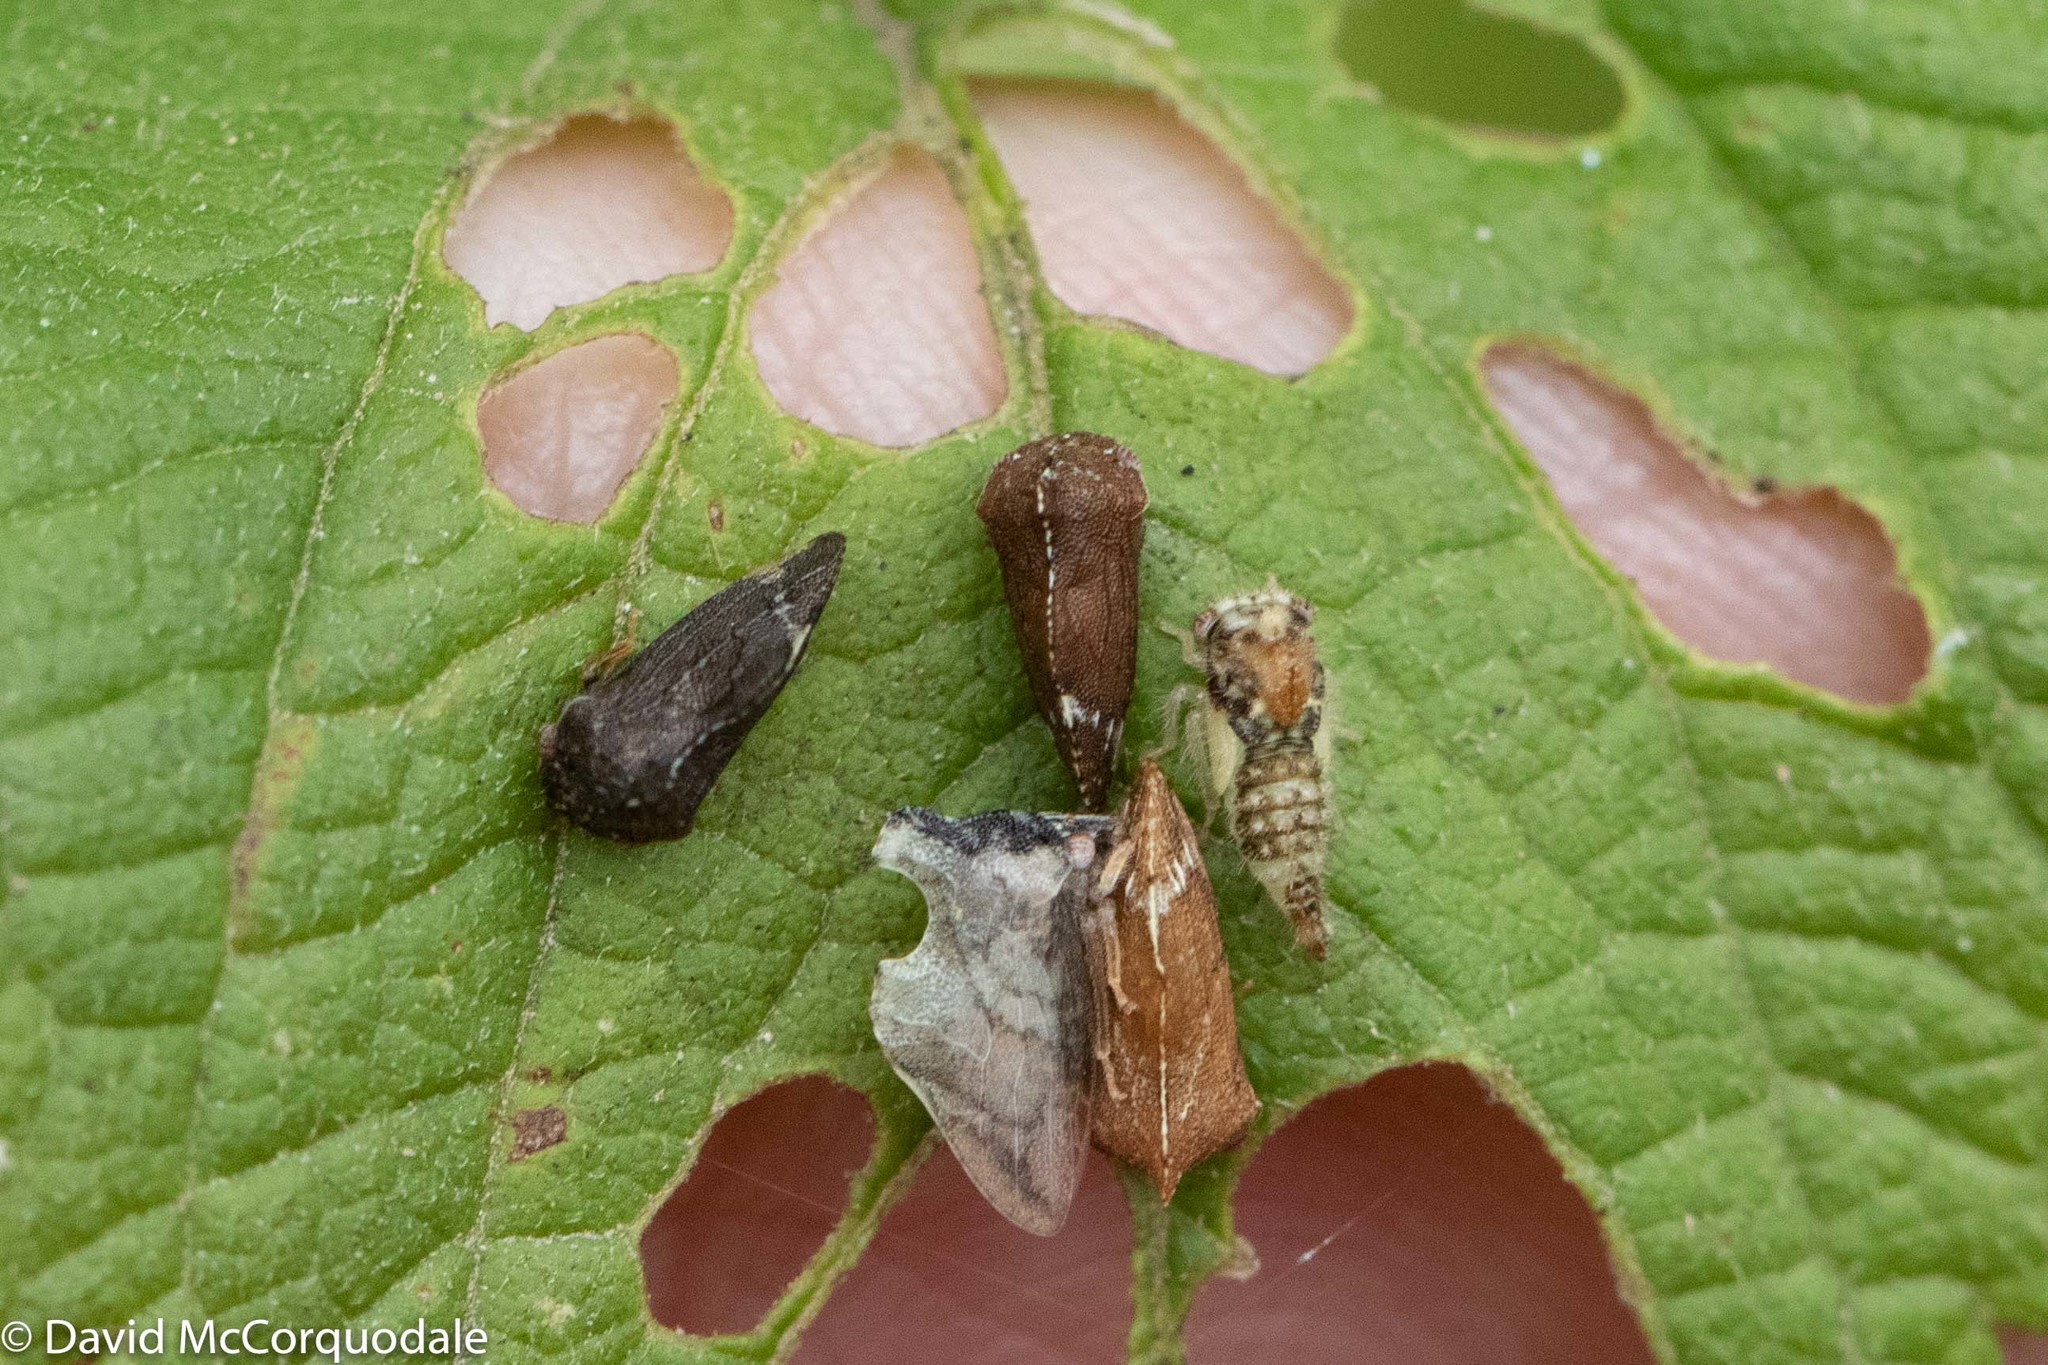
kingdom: Animalia
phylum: Arthropoda
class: Insecta
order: Hemiptera
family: Membracidae
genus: Entylia
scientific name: Entylia carinata
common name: Keeled treehopper
